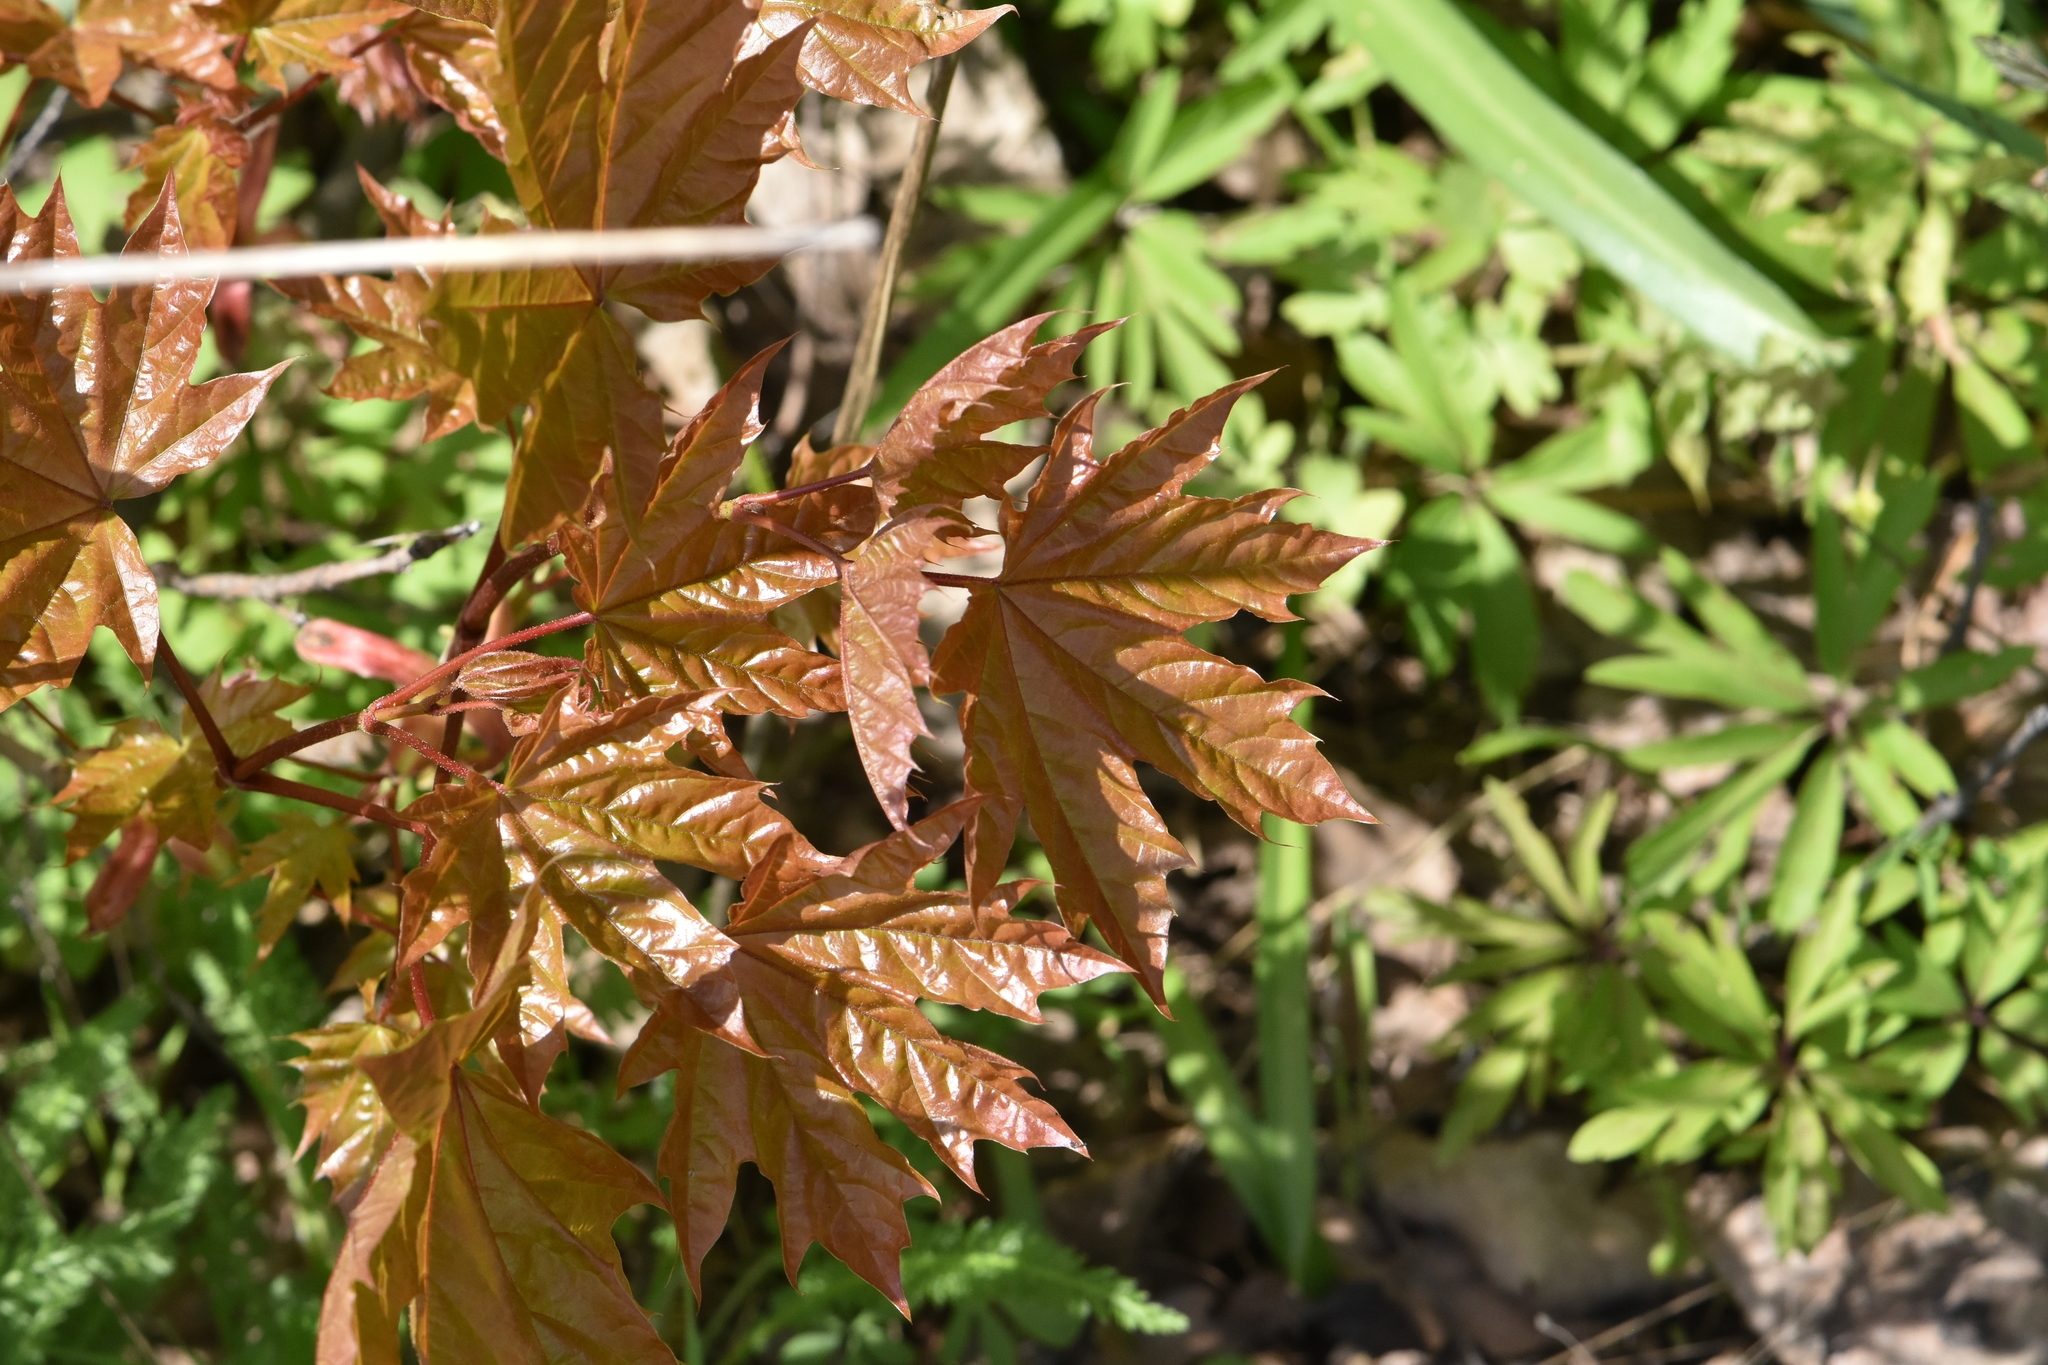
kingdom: Plantae
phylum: Tracheophyta
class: Magnoliopsida
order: Sapindales
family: Sapindaceae
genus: Acer
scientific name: Acer platanoides
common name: Norway maple
